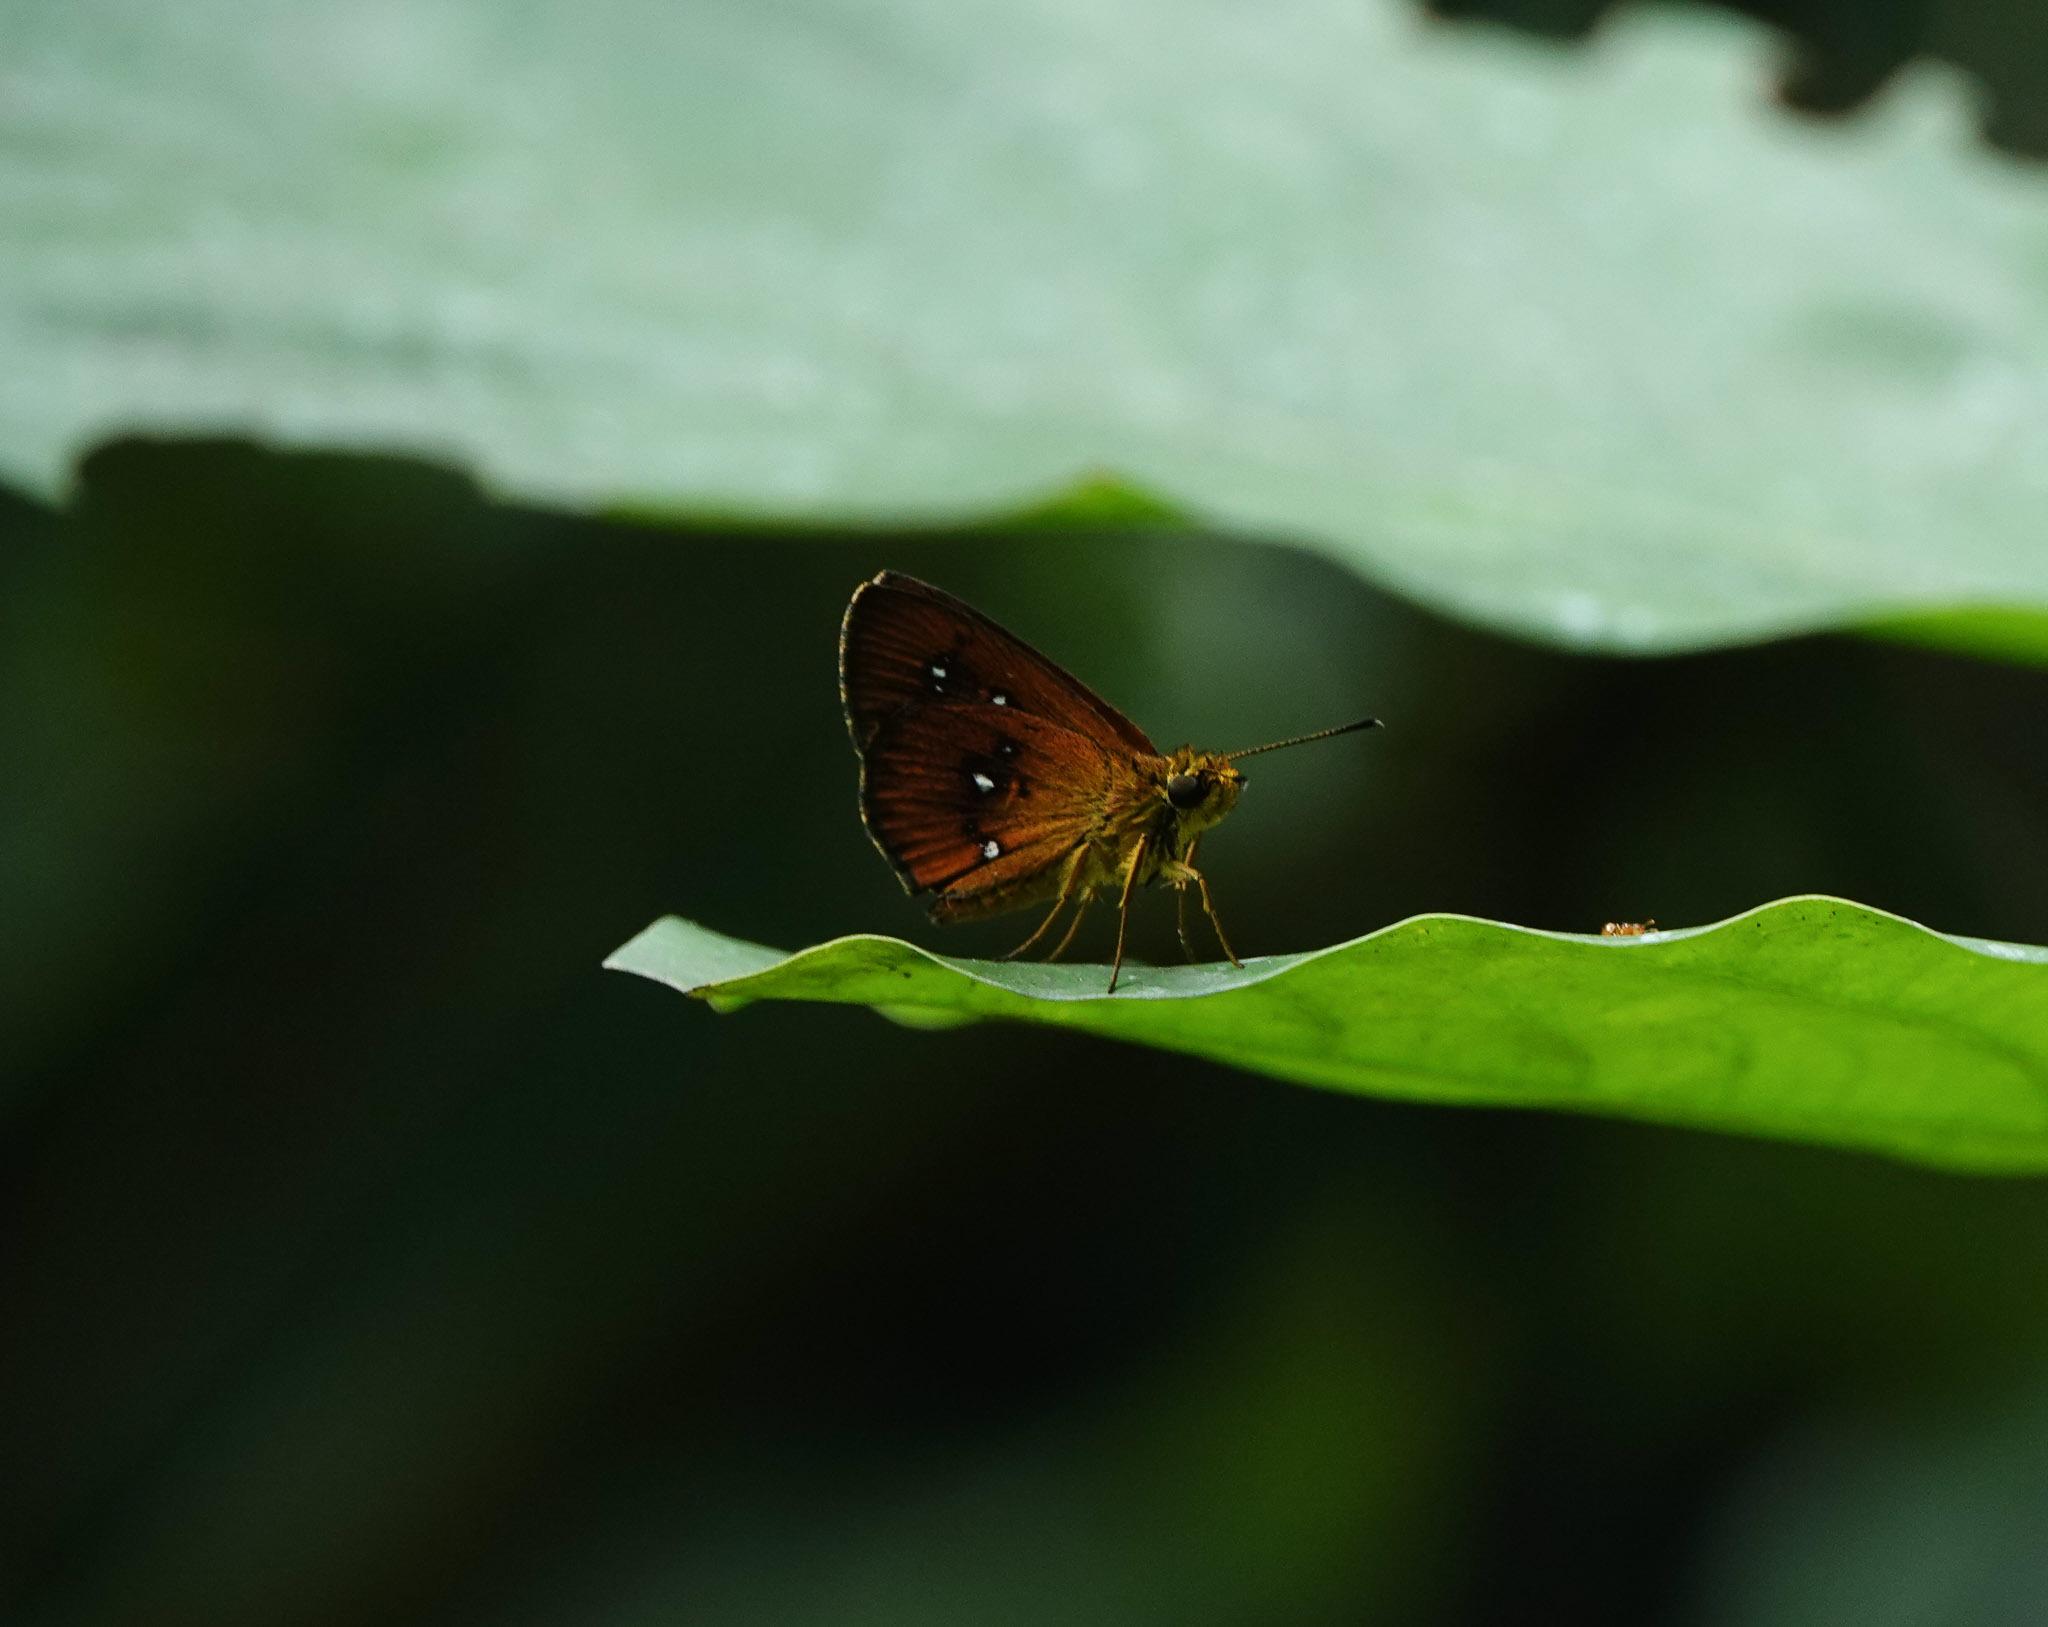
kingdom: Animalia
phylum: Arthropoda
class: Insecta
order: Lepidoptera
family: Hesperiidae
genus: Iambrix
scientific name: Iambrix salsala
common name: Chestnut bob
